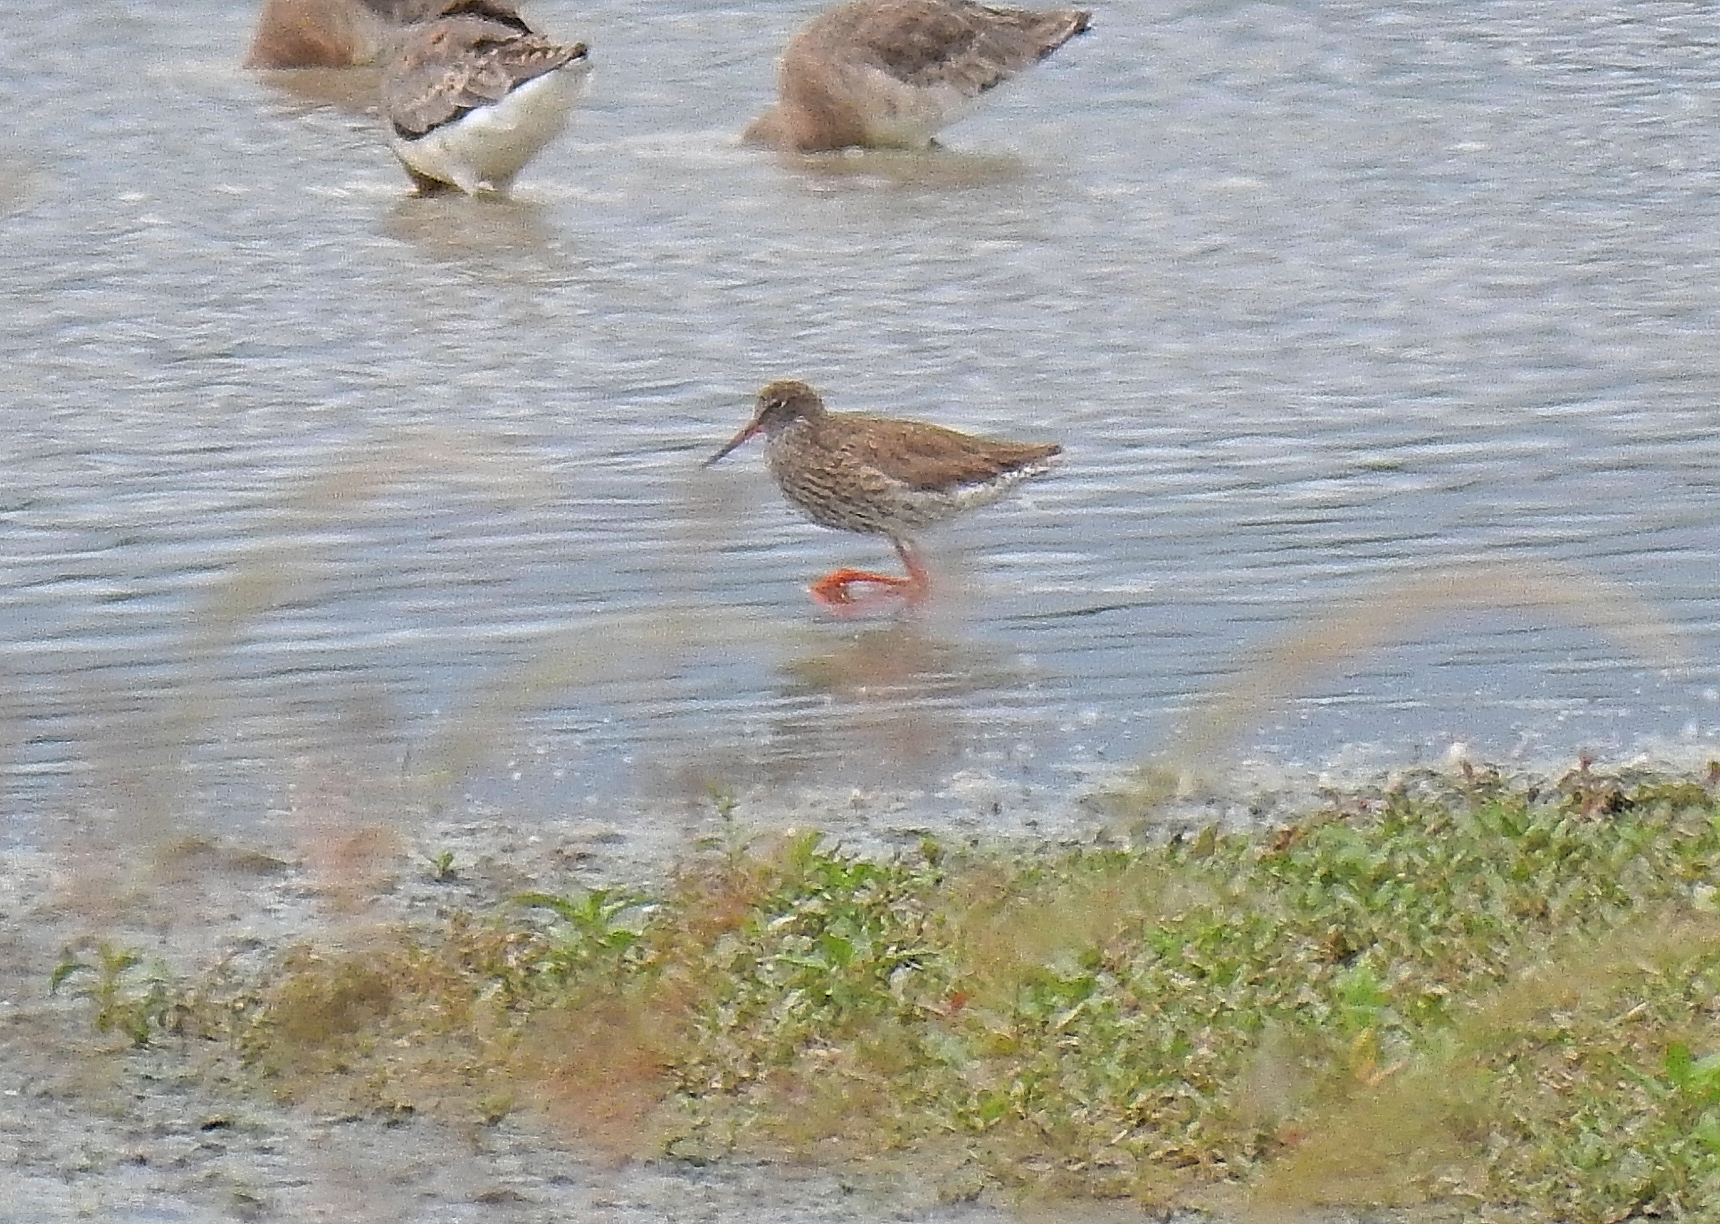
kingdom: Animalia
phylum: Chordata
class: Aves
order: Charadriiformes
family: Scolopacidae
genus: Tringa
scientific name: Tringa totanus
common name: Common redshank
